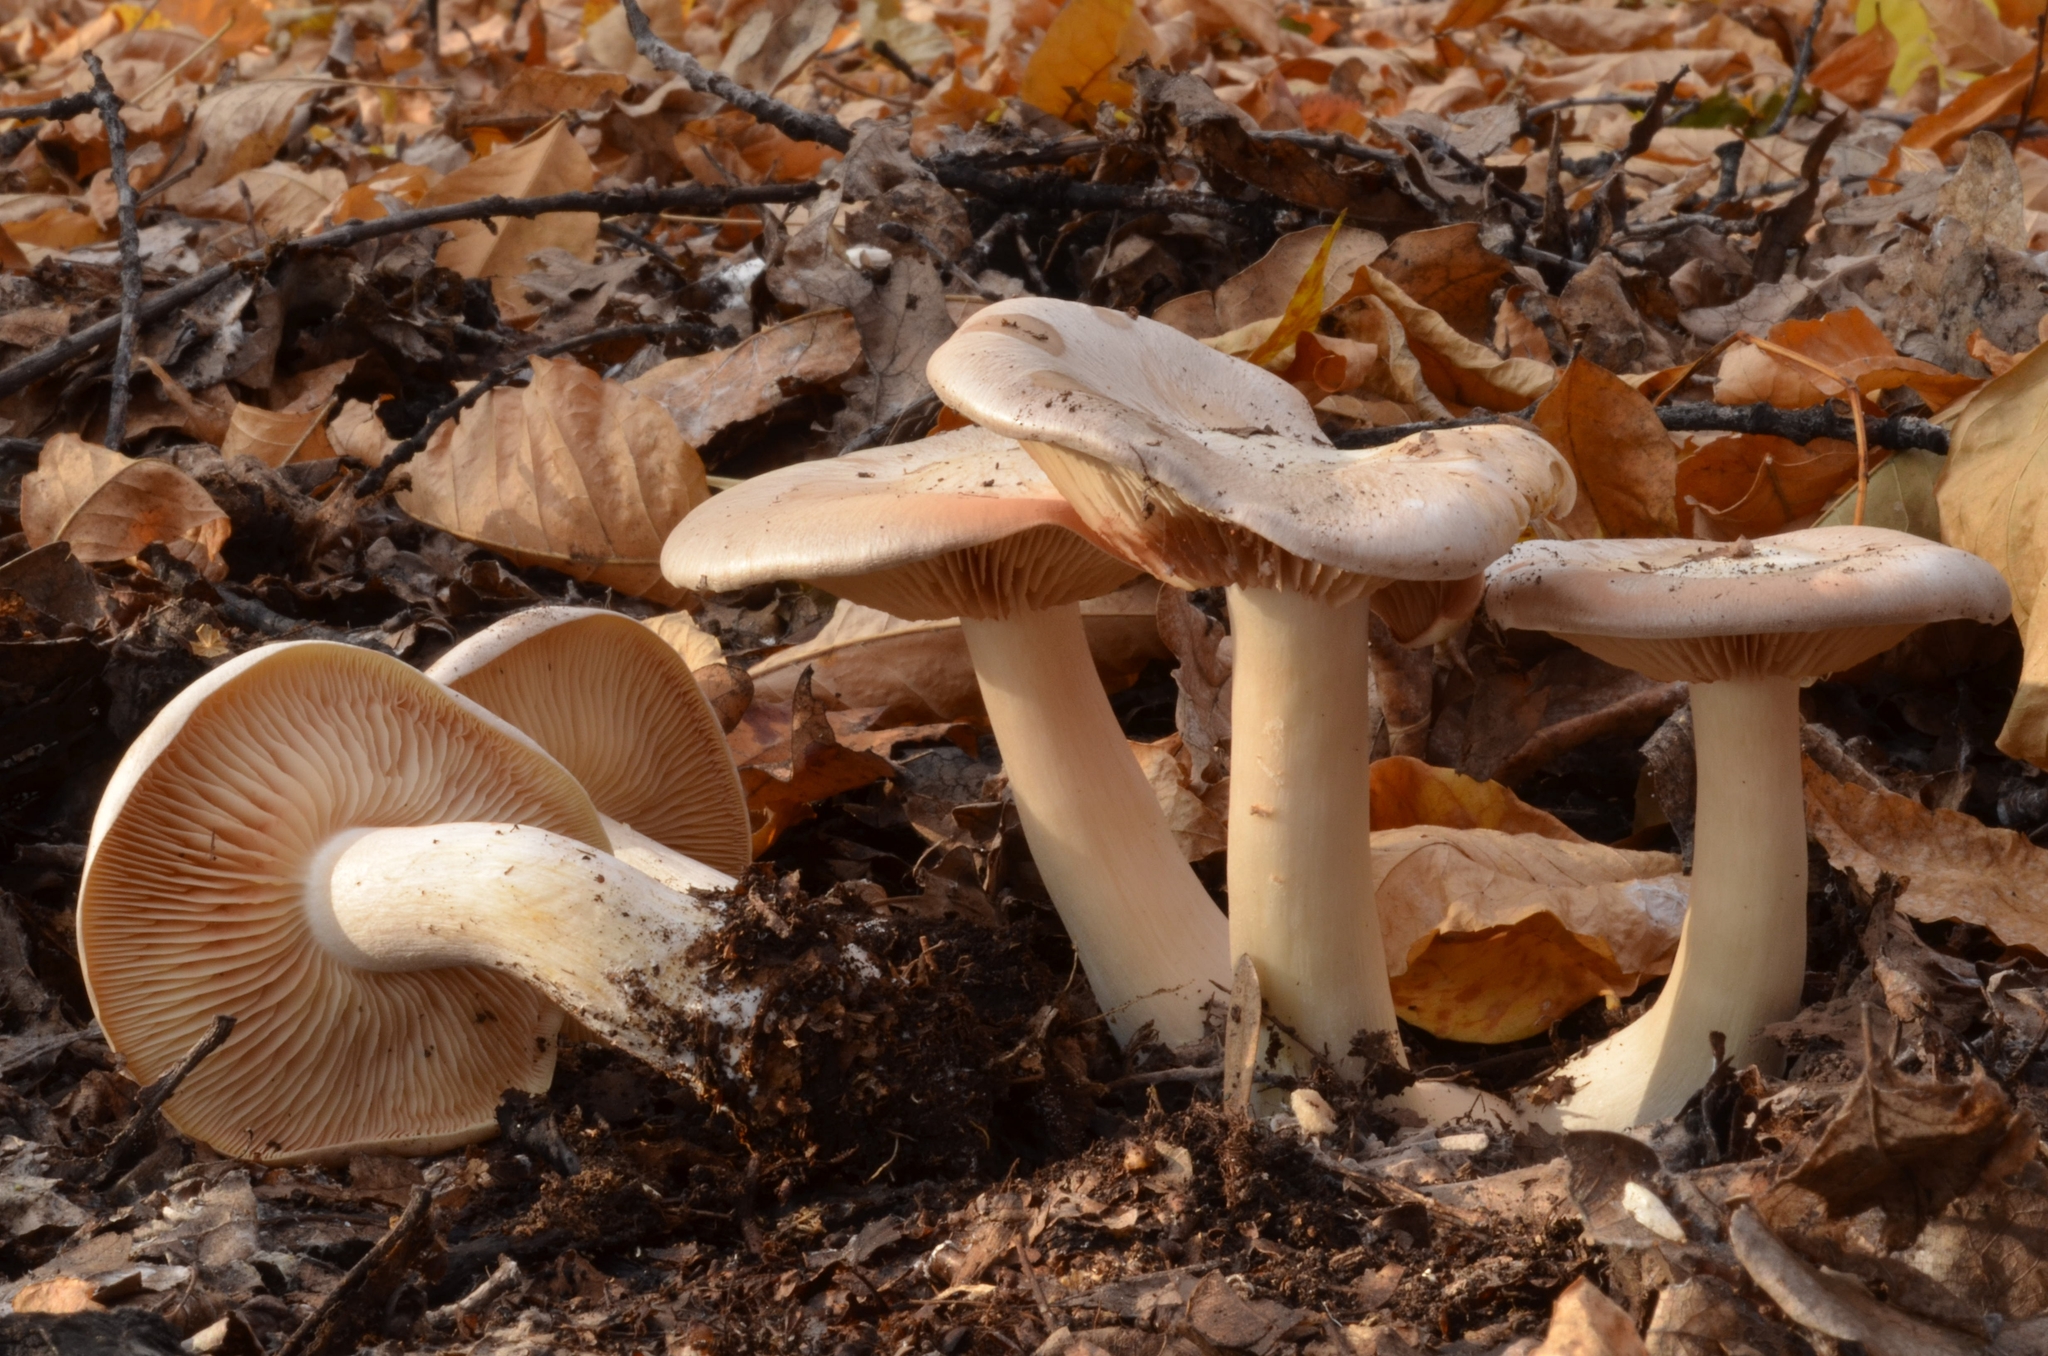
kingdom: Fungi
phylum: Basidiomycota
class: Agaricomycetes
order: Agaricales
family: Entolomataceae
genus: Entoloma
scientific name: Entoloma sinuatum
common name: Livid pinkgill
